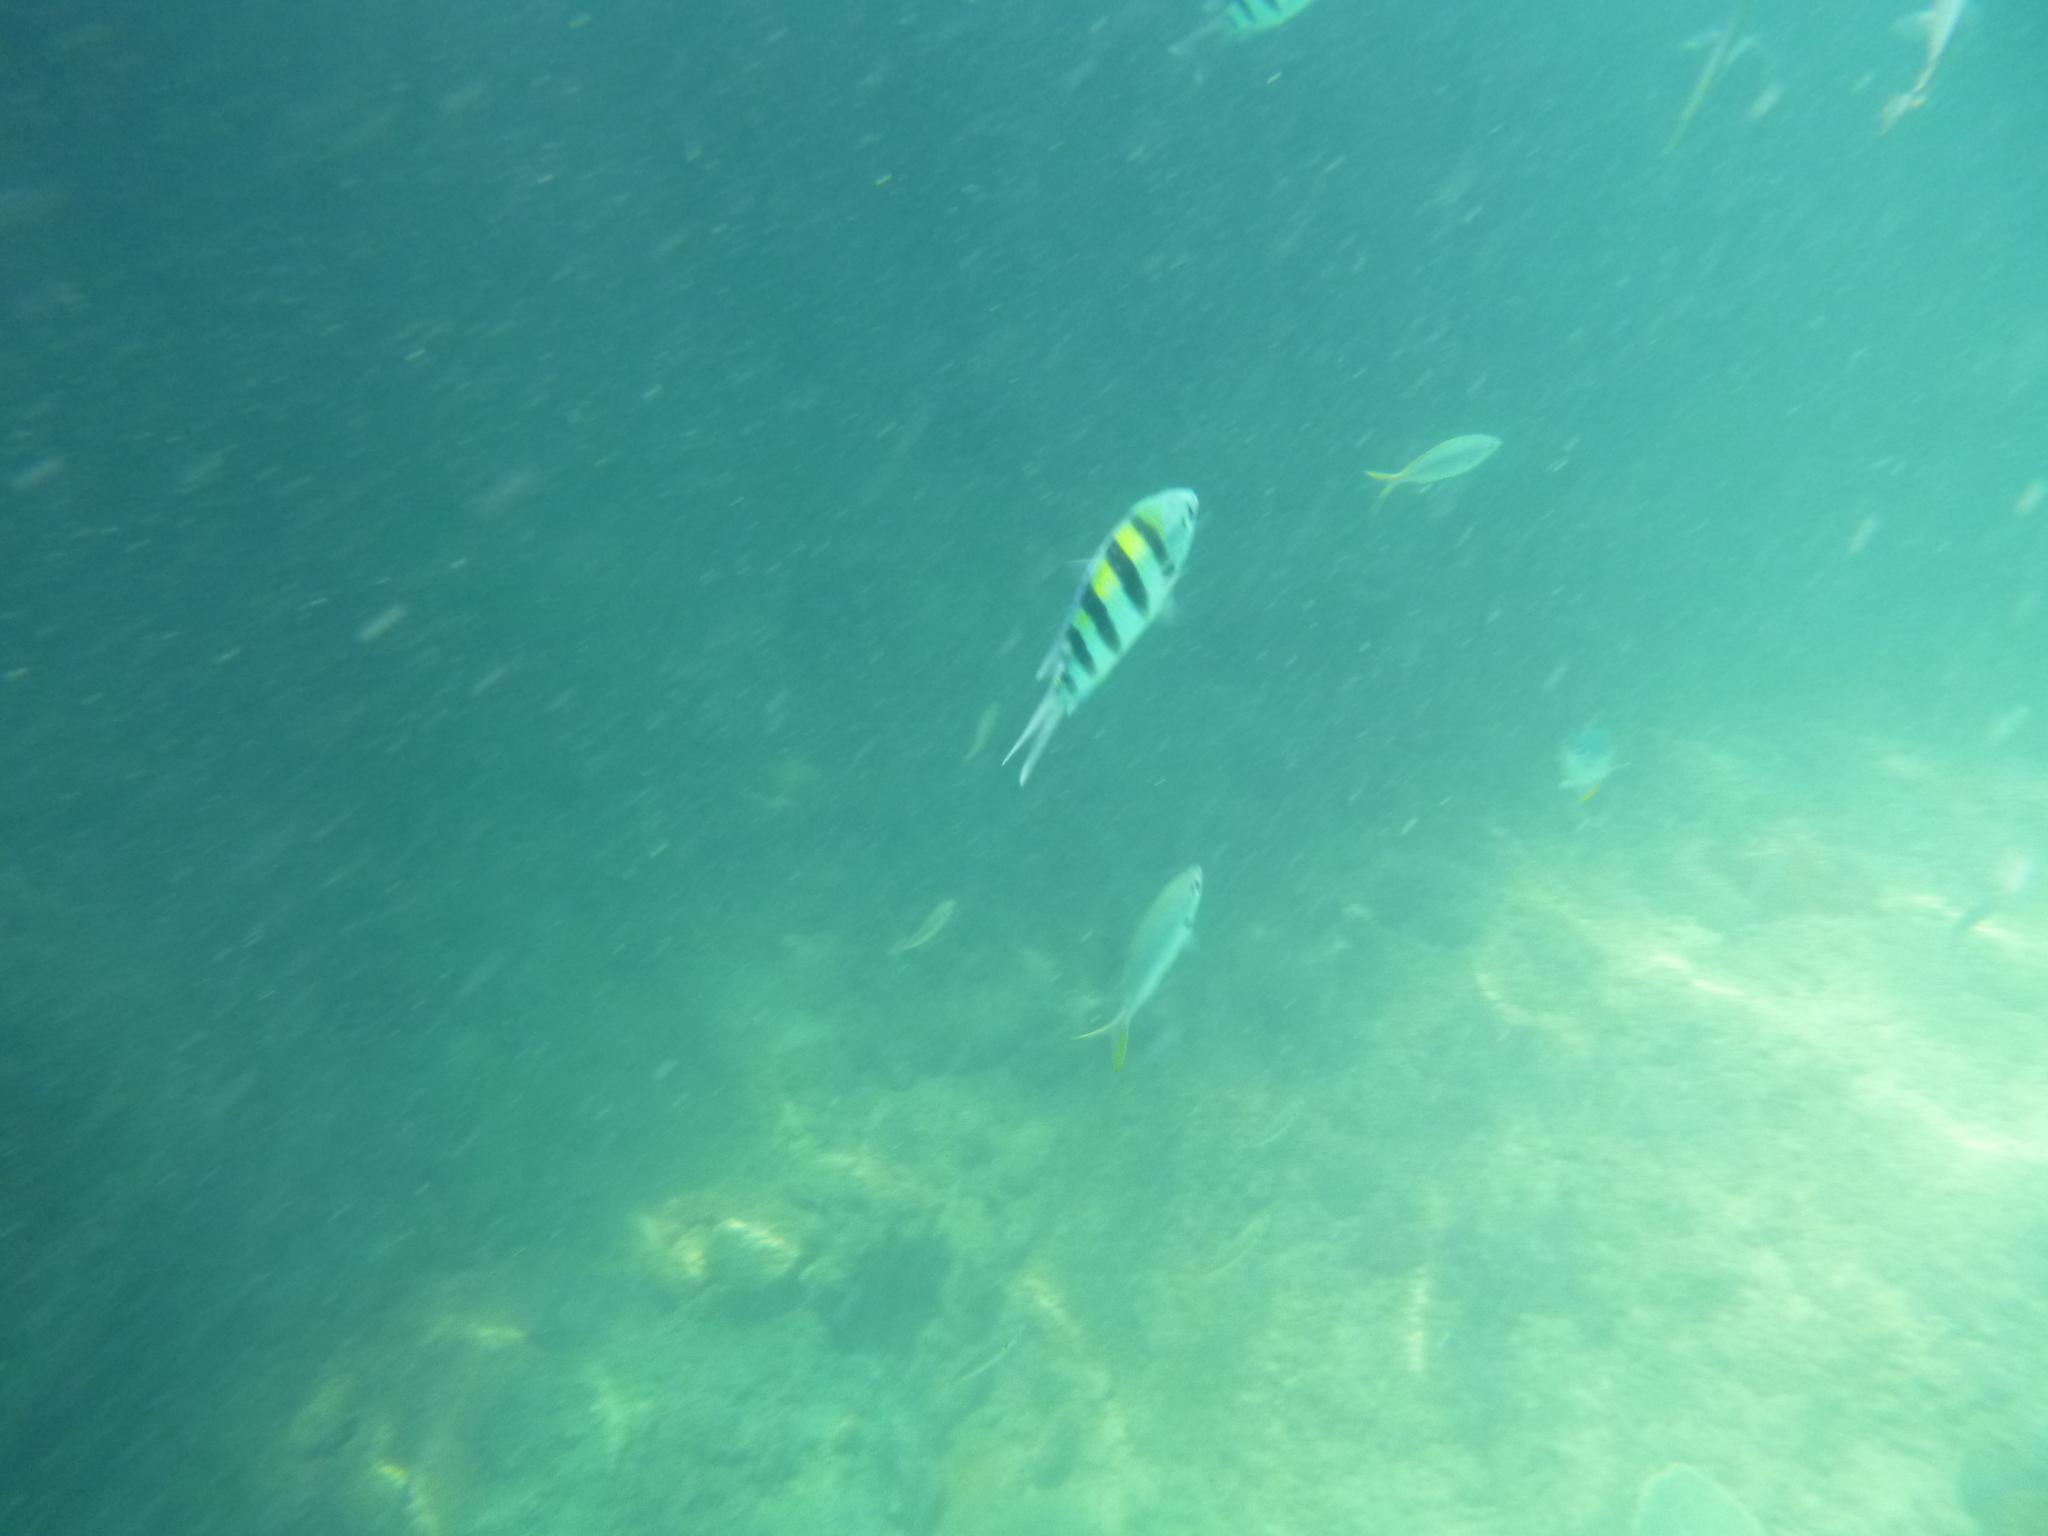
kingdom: Animalia
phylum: Chordata
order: Perciformes
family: Pomacentridae
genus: Abudefduf
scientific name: Abudefduf vaigiensis
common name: Indo-pacific sergeant
